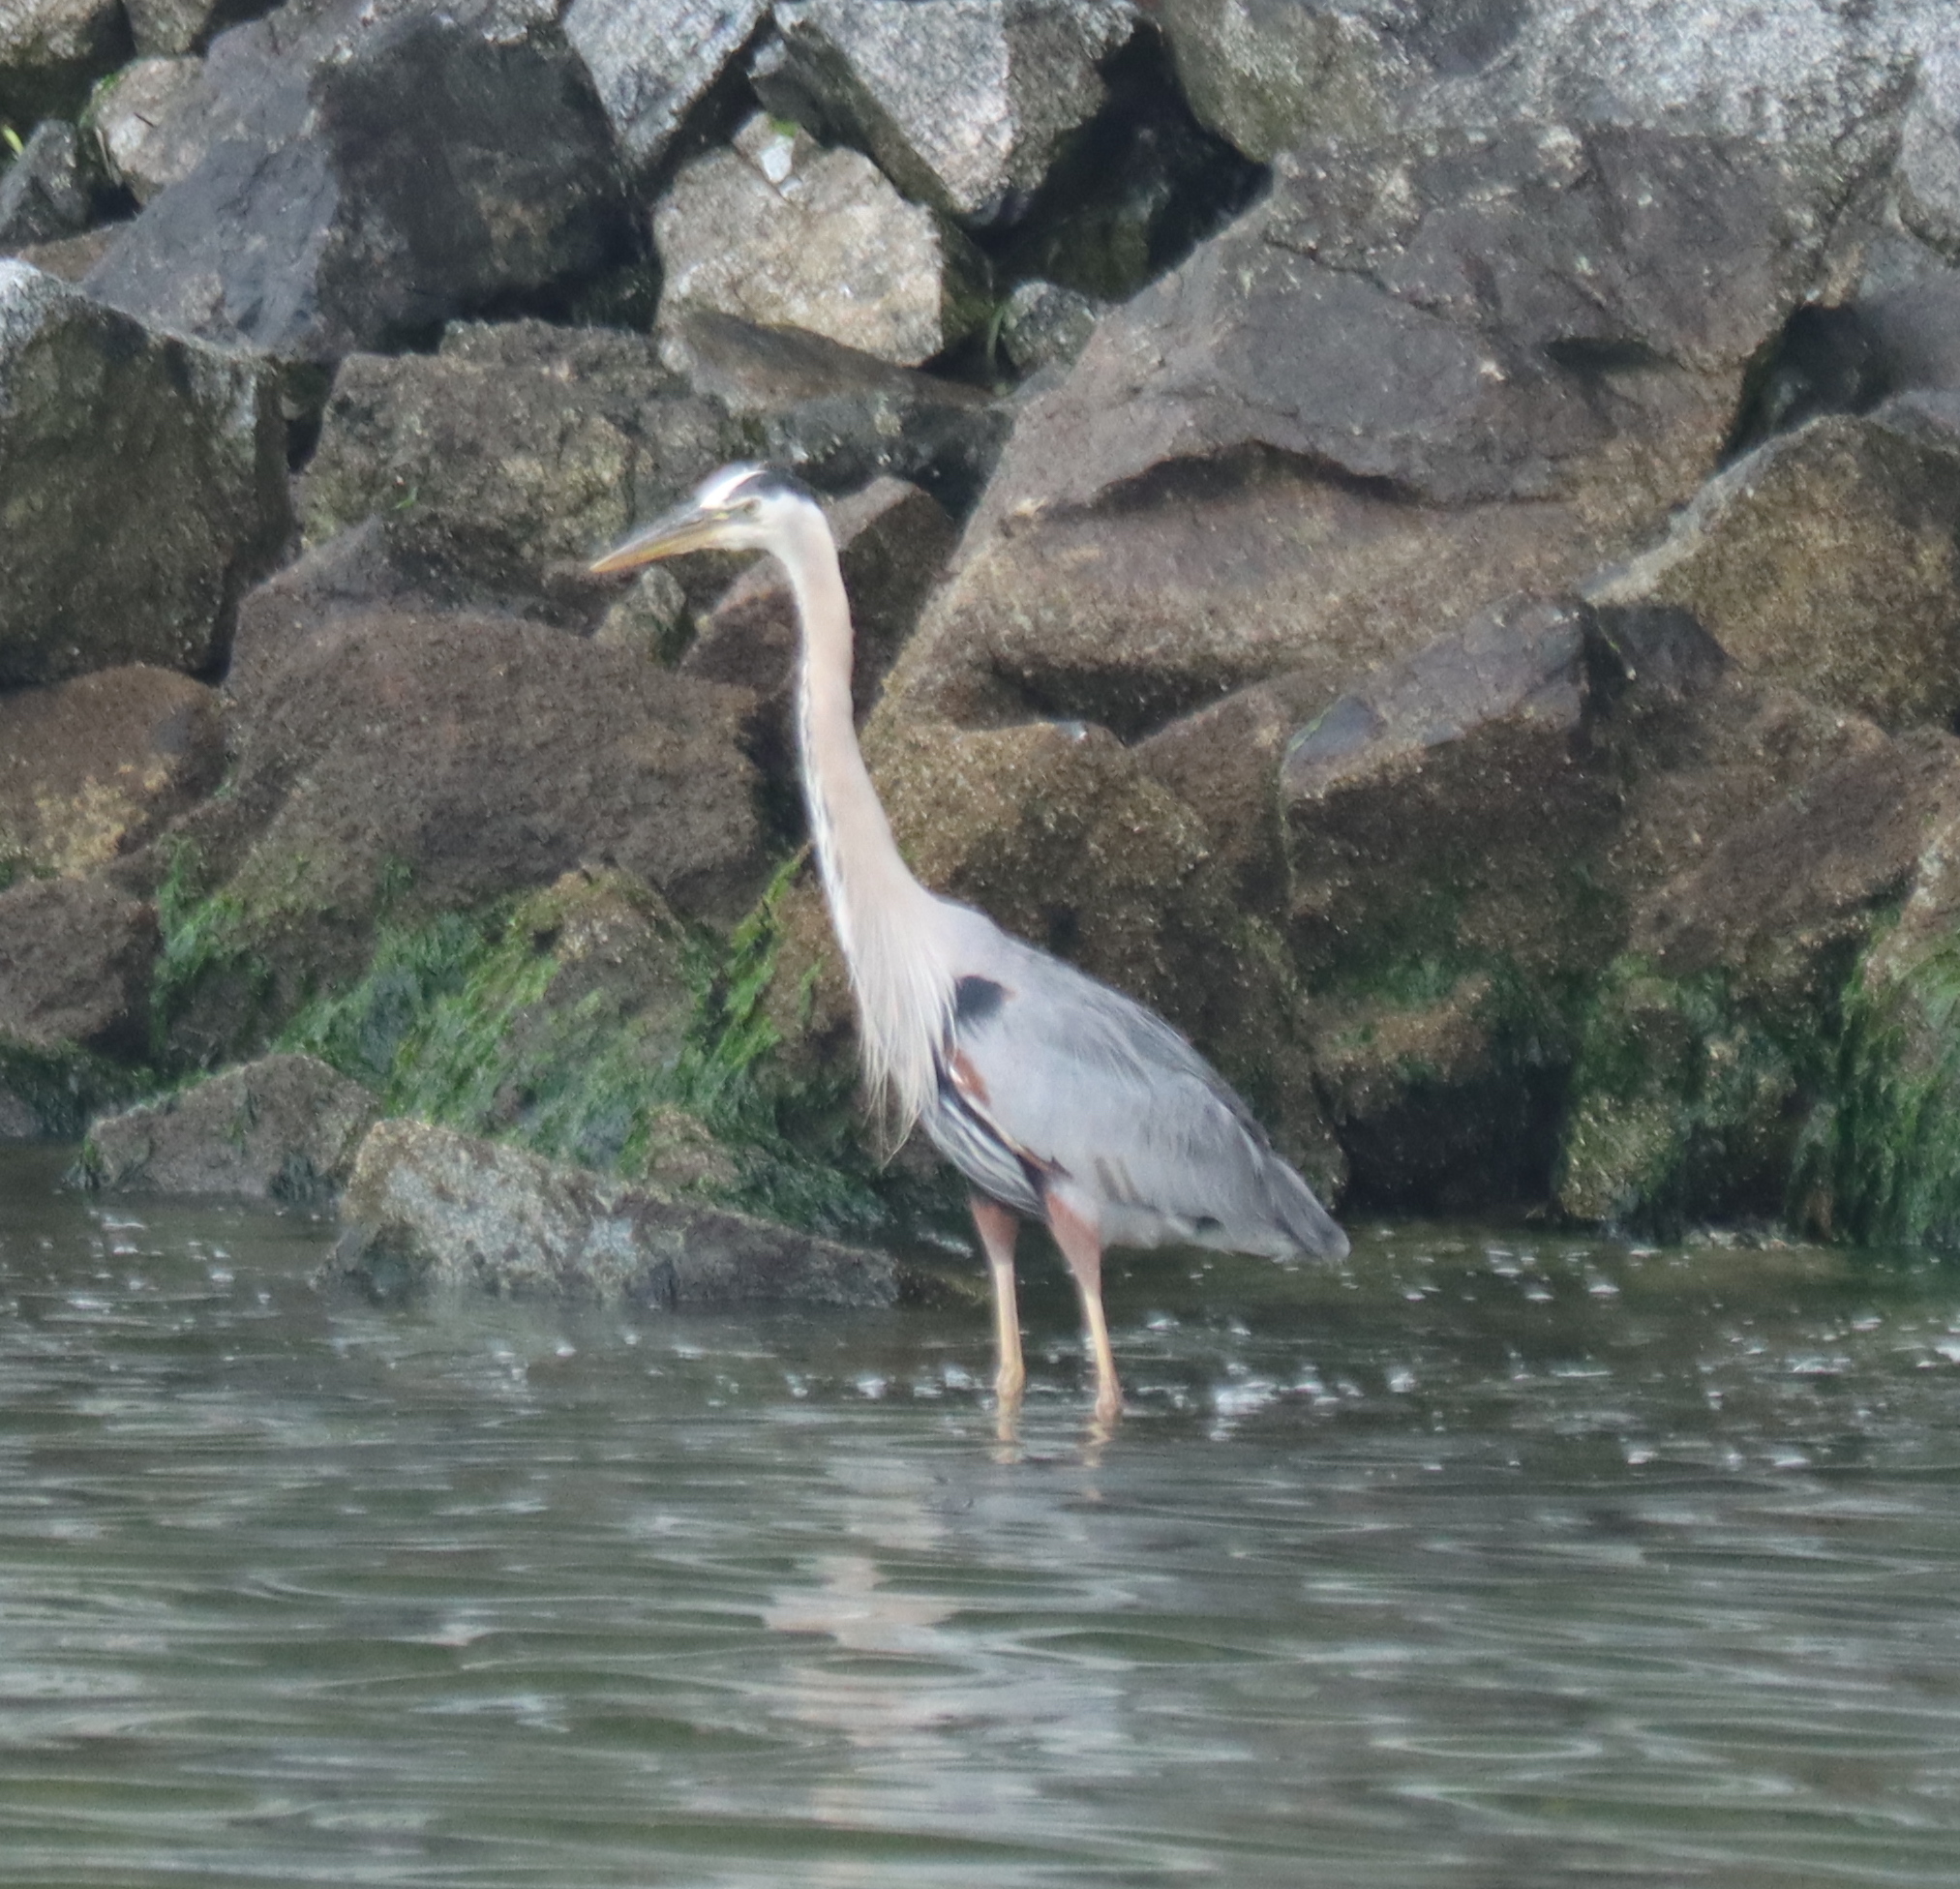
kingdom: Animalia
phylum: Chordata
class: Aves
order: Pelecaniformes
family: Ardeidae
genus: Ardea
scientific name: Ardea herodias
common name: Great blue heron
